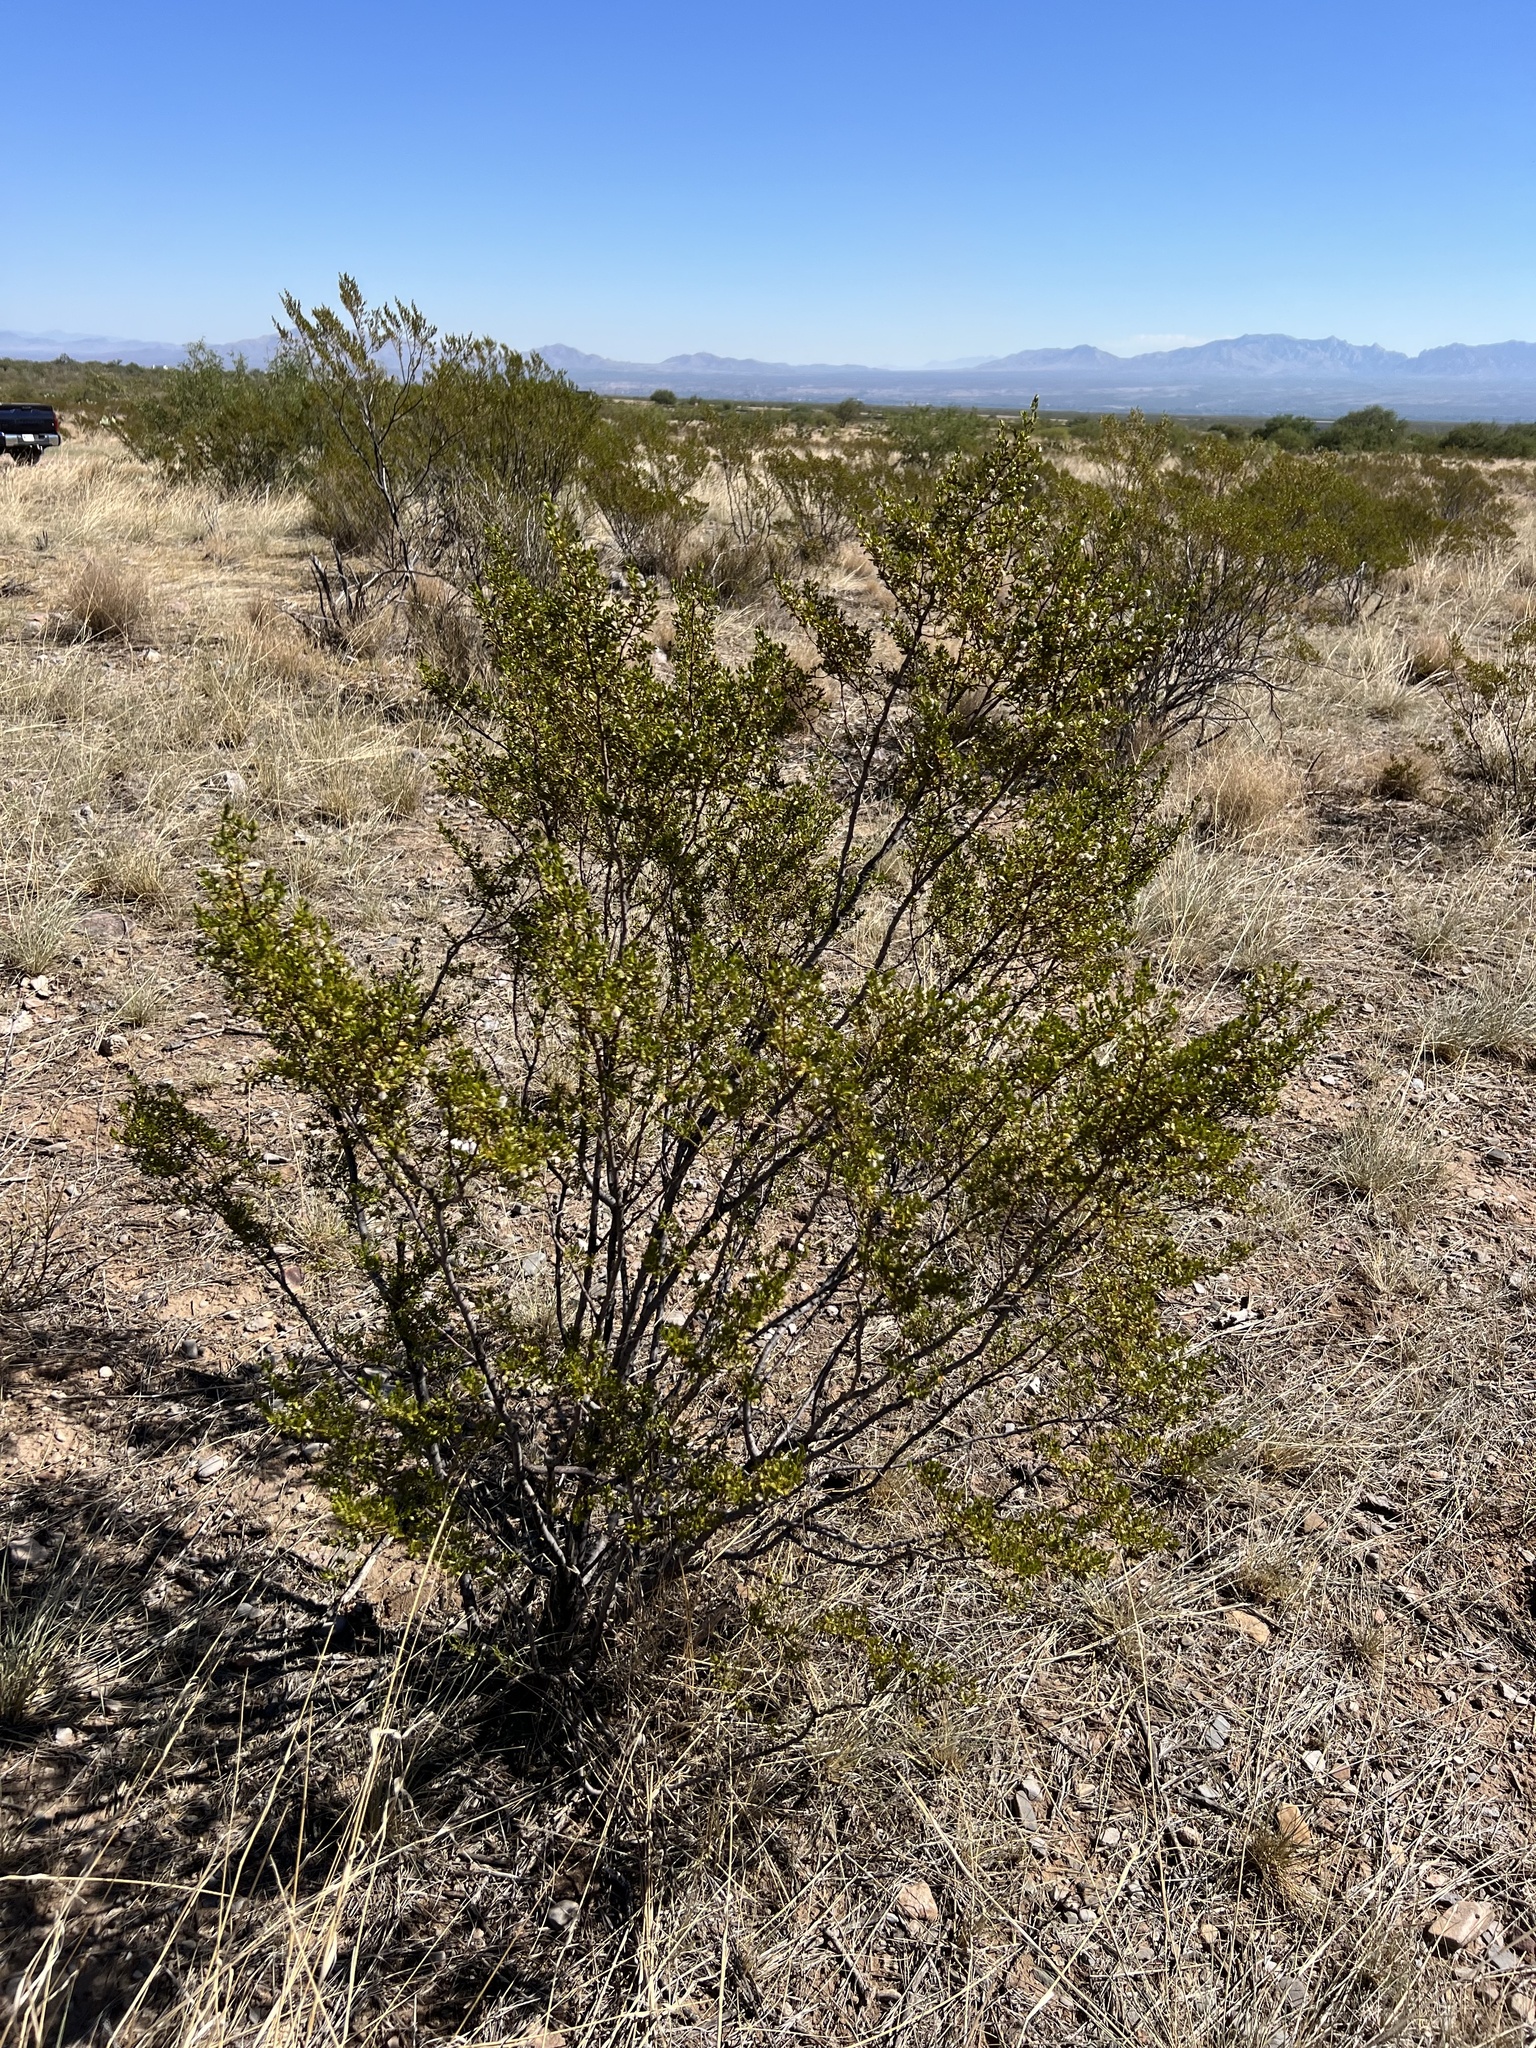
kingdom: Plantae
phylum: Tracheophyta
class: Magnoliopsida
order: Zygophyllales
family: Zygophyllaceae
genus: Larrea
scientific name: Larrea tridentata
